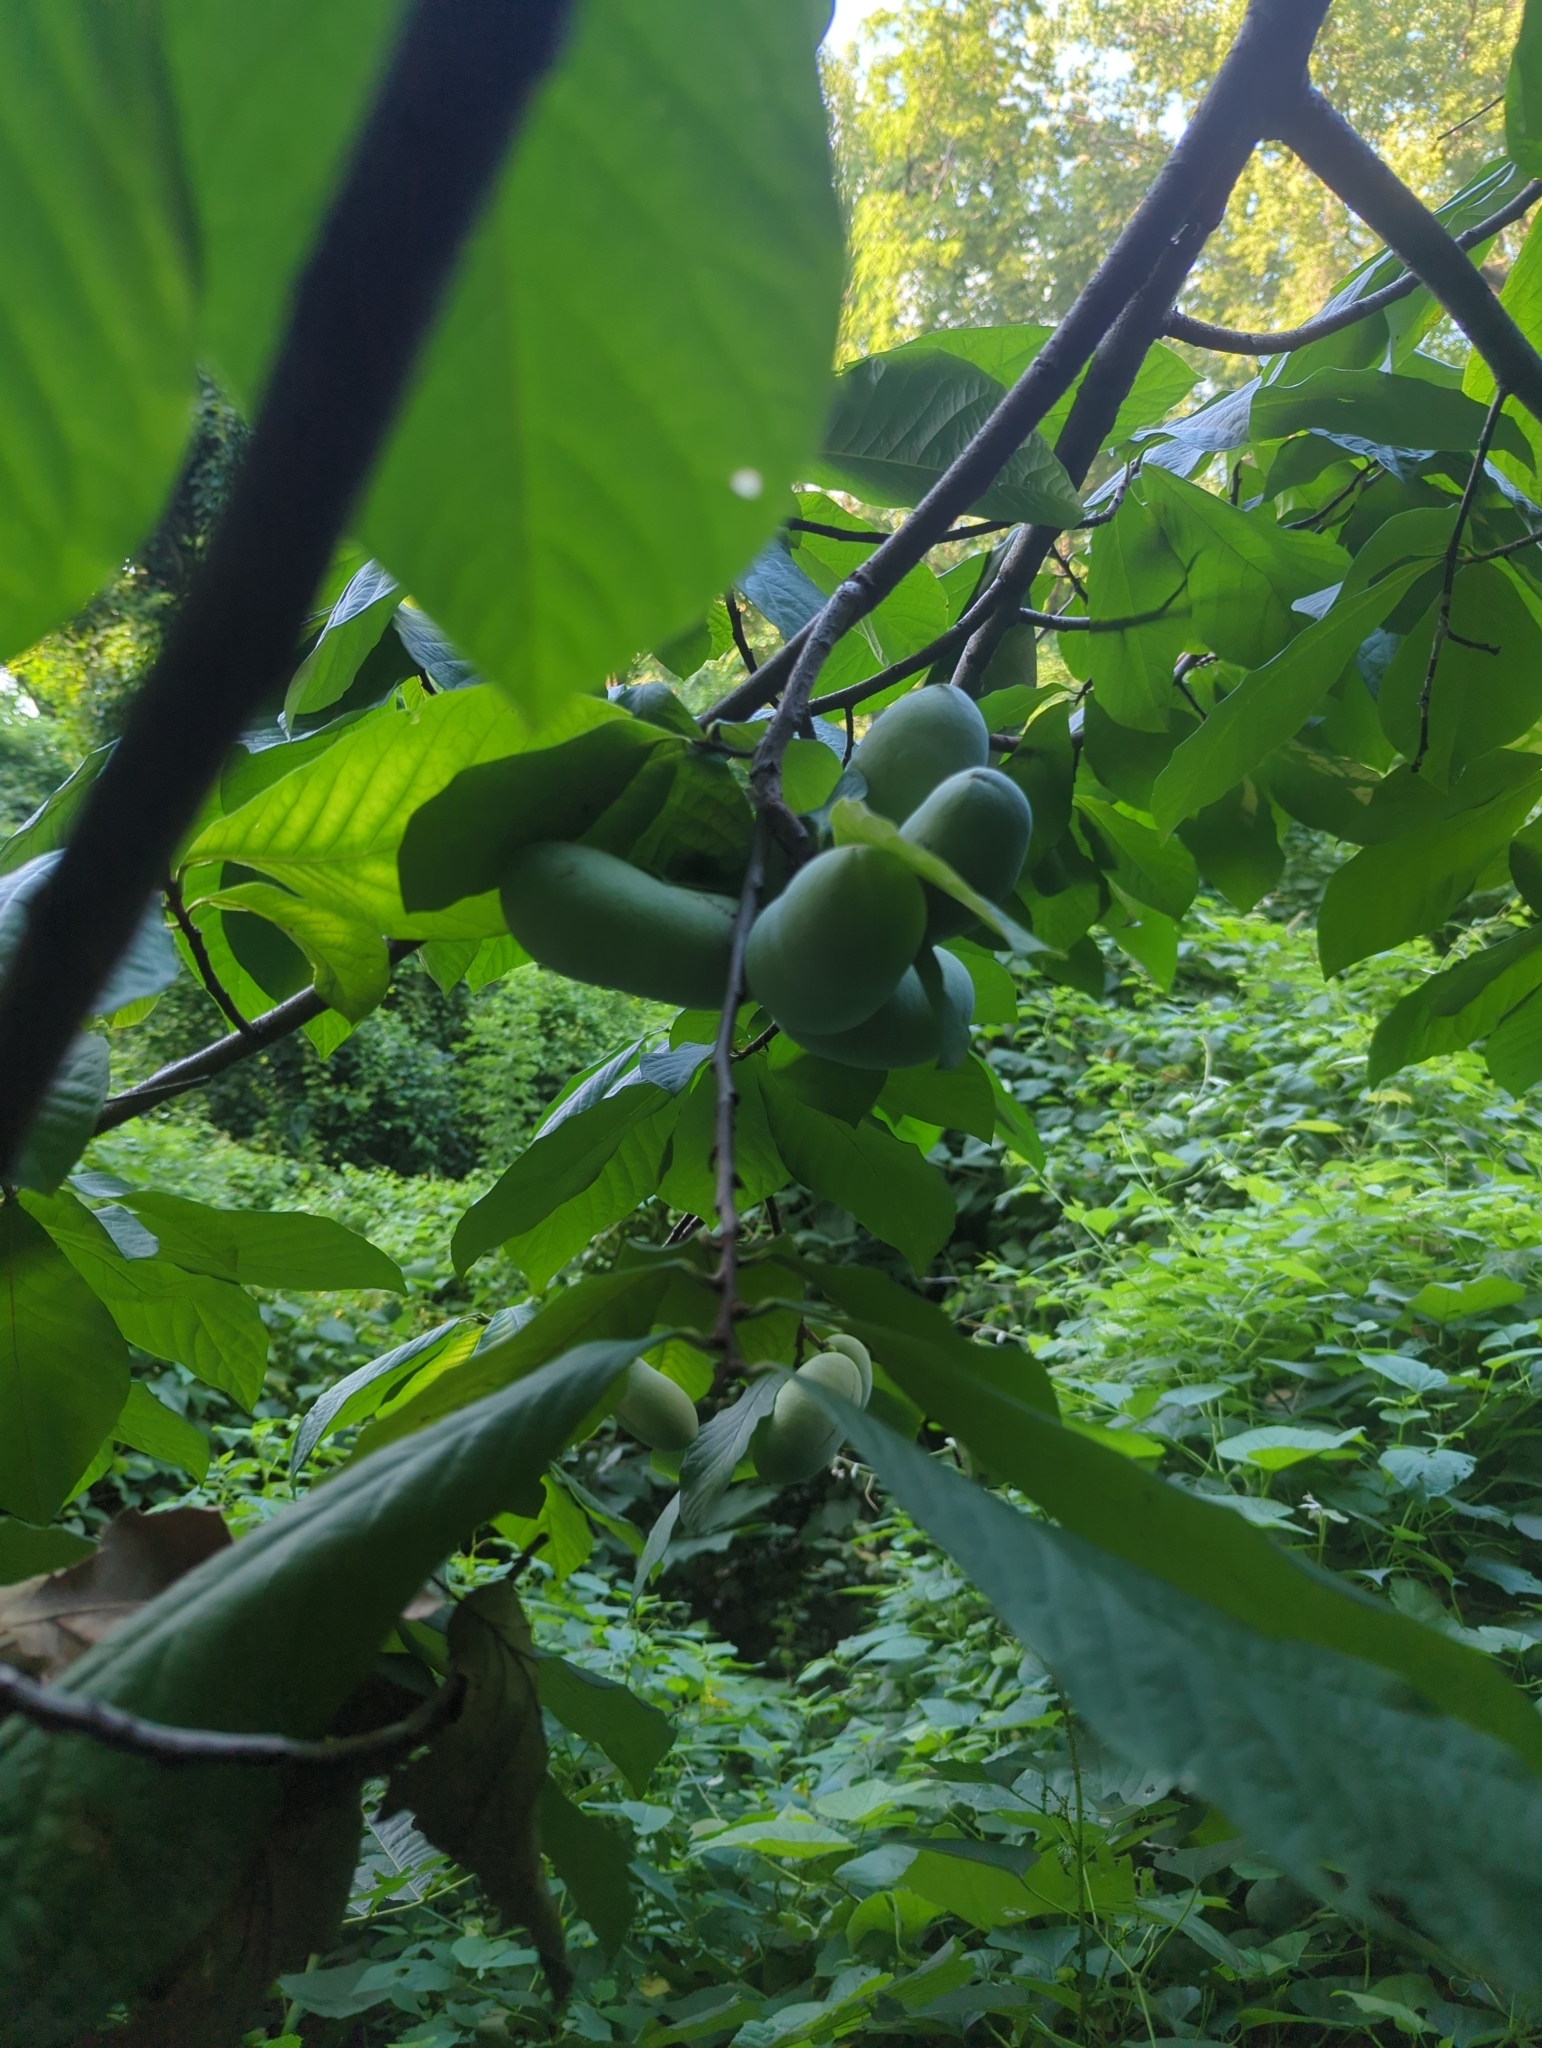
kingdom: Plantae
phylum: Tracheophyta
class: Magnoliopsida
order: Magnoliales
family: Annonaceae
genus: Asimina
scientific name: Asimina triloba
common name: Dog-banana
